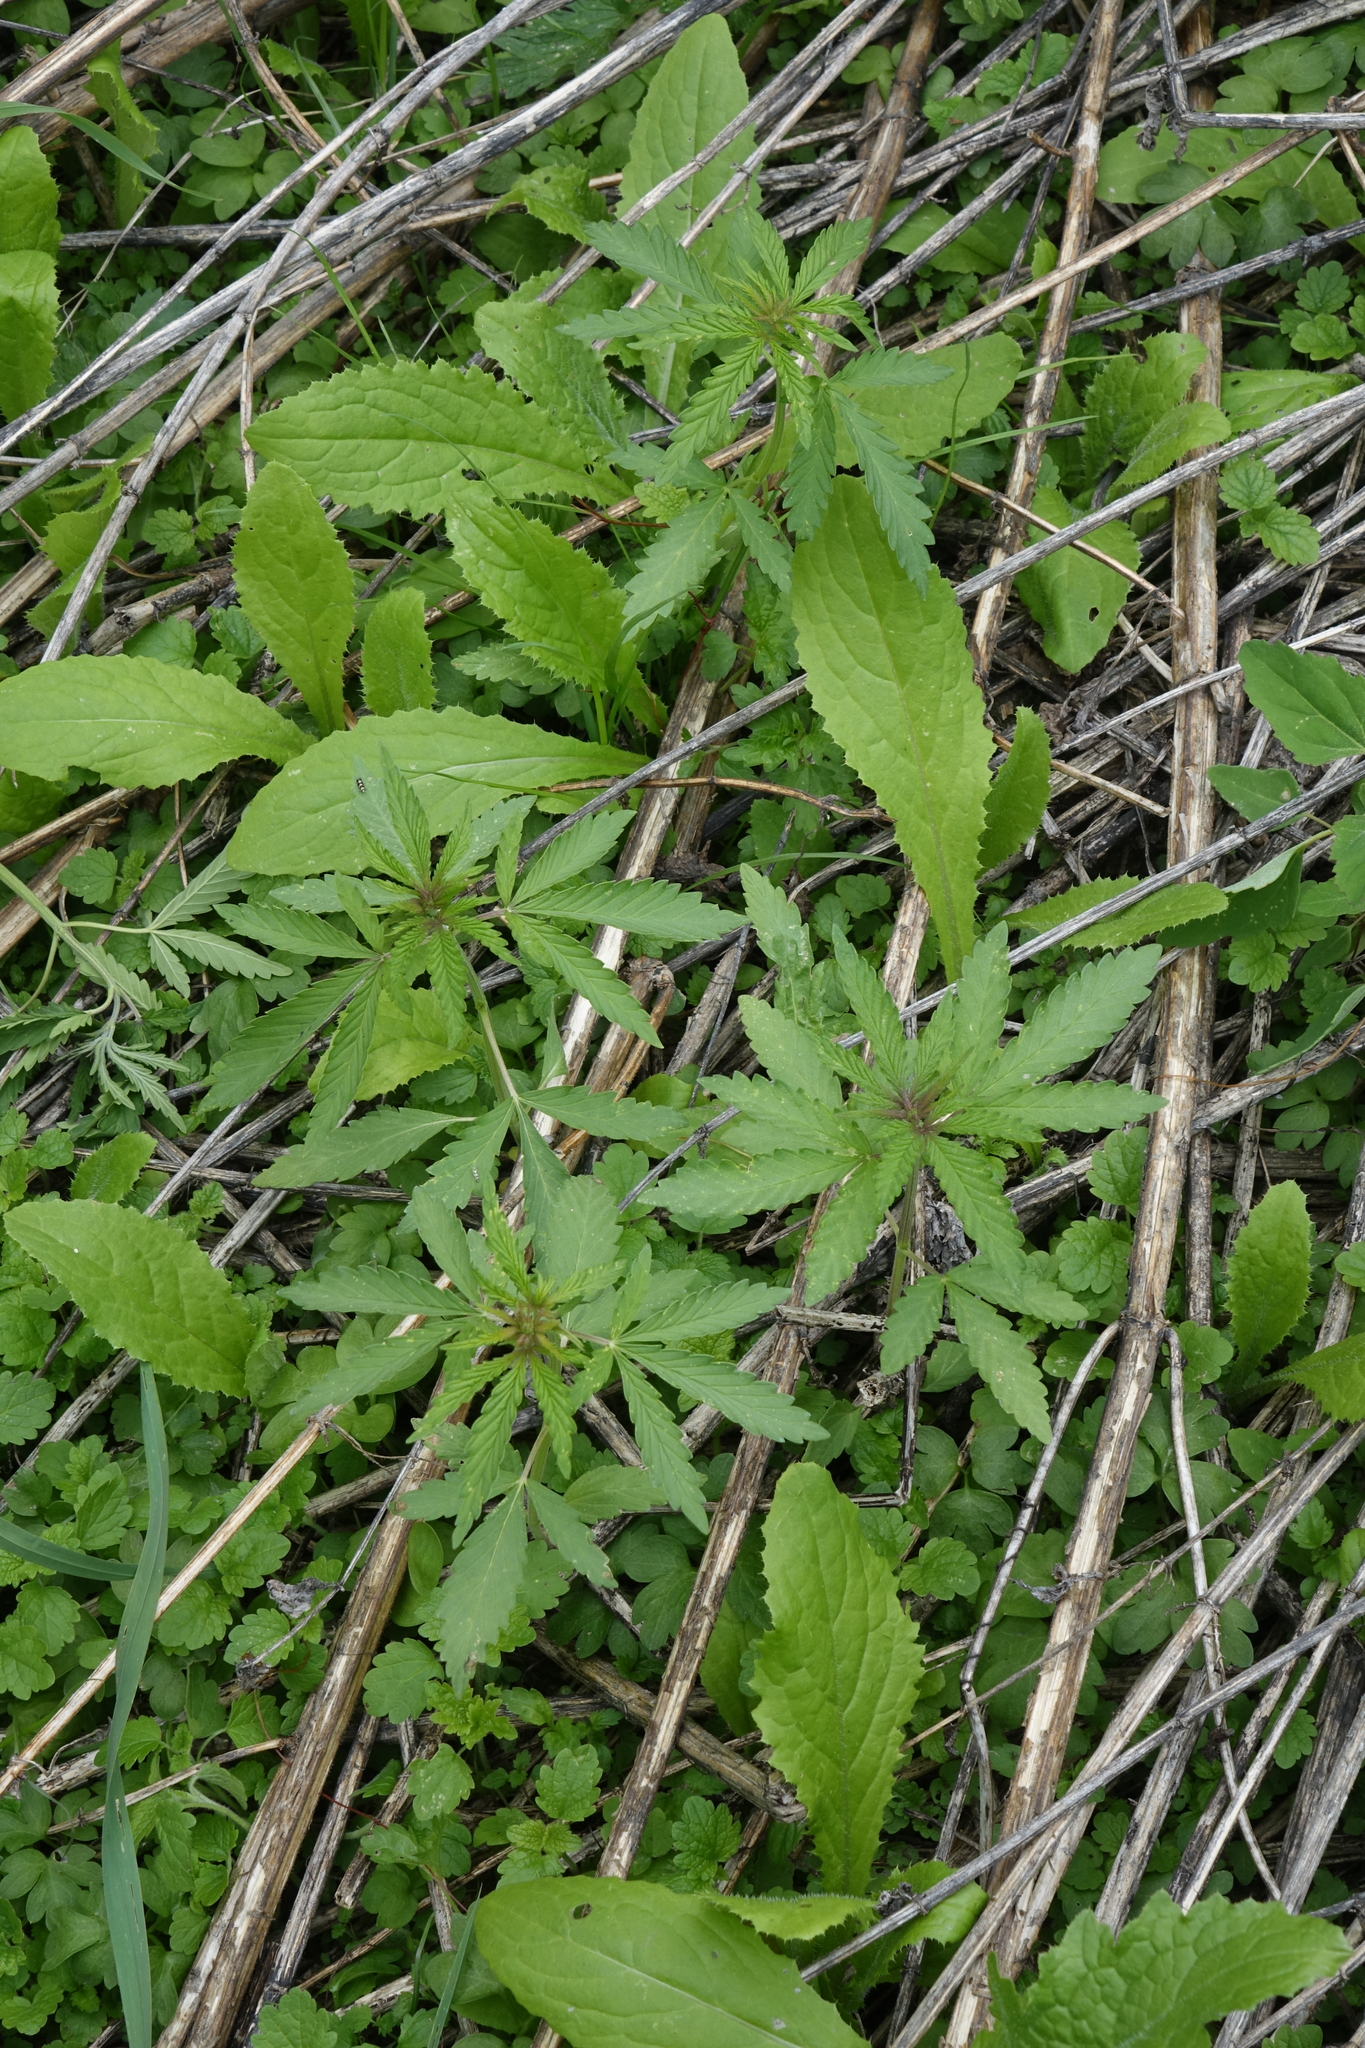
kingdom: Plantae
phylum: Tracheophyta
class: Magnoliopsida
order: Rosales
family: Cannabaceae
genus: Cannabis
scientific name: Cannabis sativa
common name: Hemp
